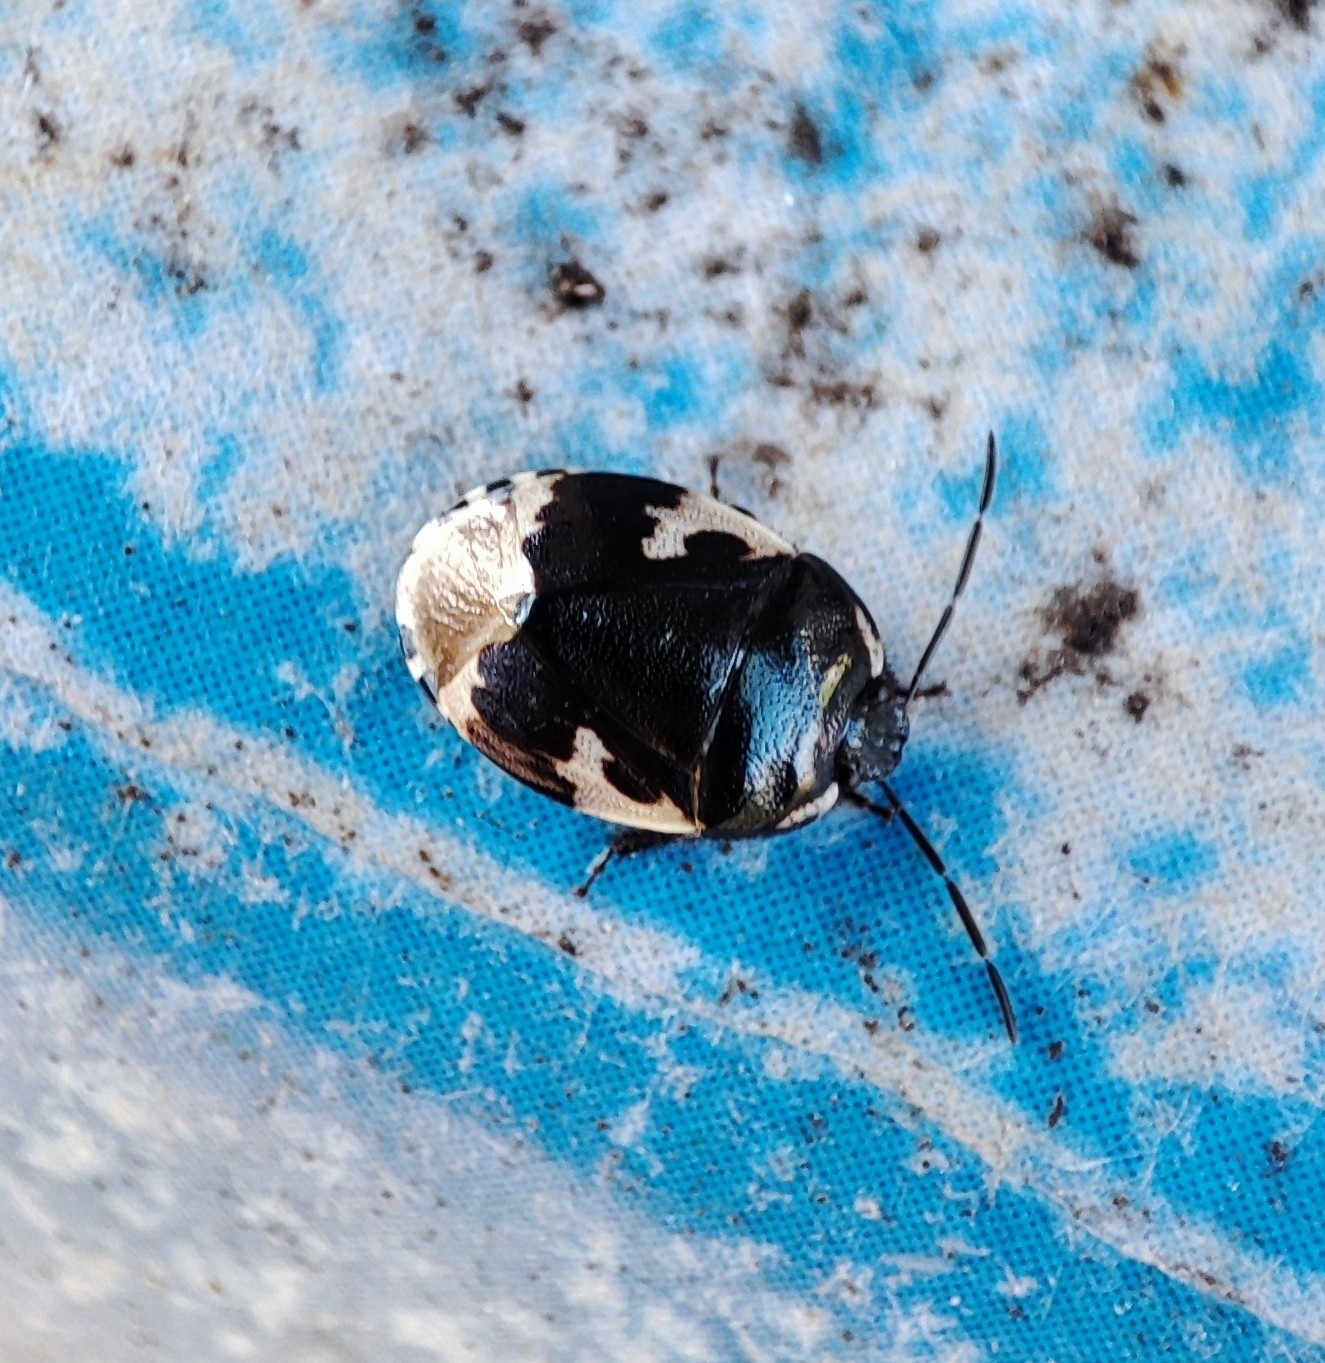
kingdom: Animalia
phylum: Arthropoda
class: Insecta
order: Hemiptera
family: Cydnidae
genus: Tritomegas
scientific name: Tritomegas bicolor
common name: Pied shieldbug
